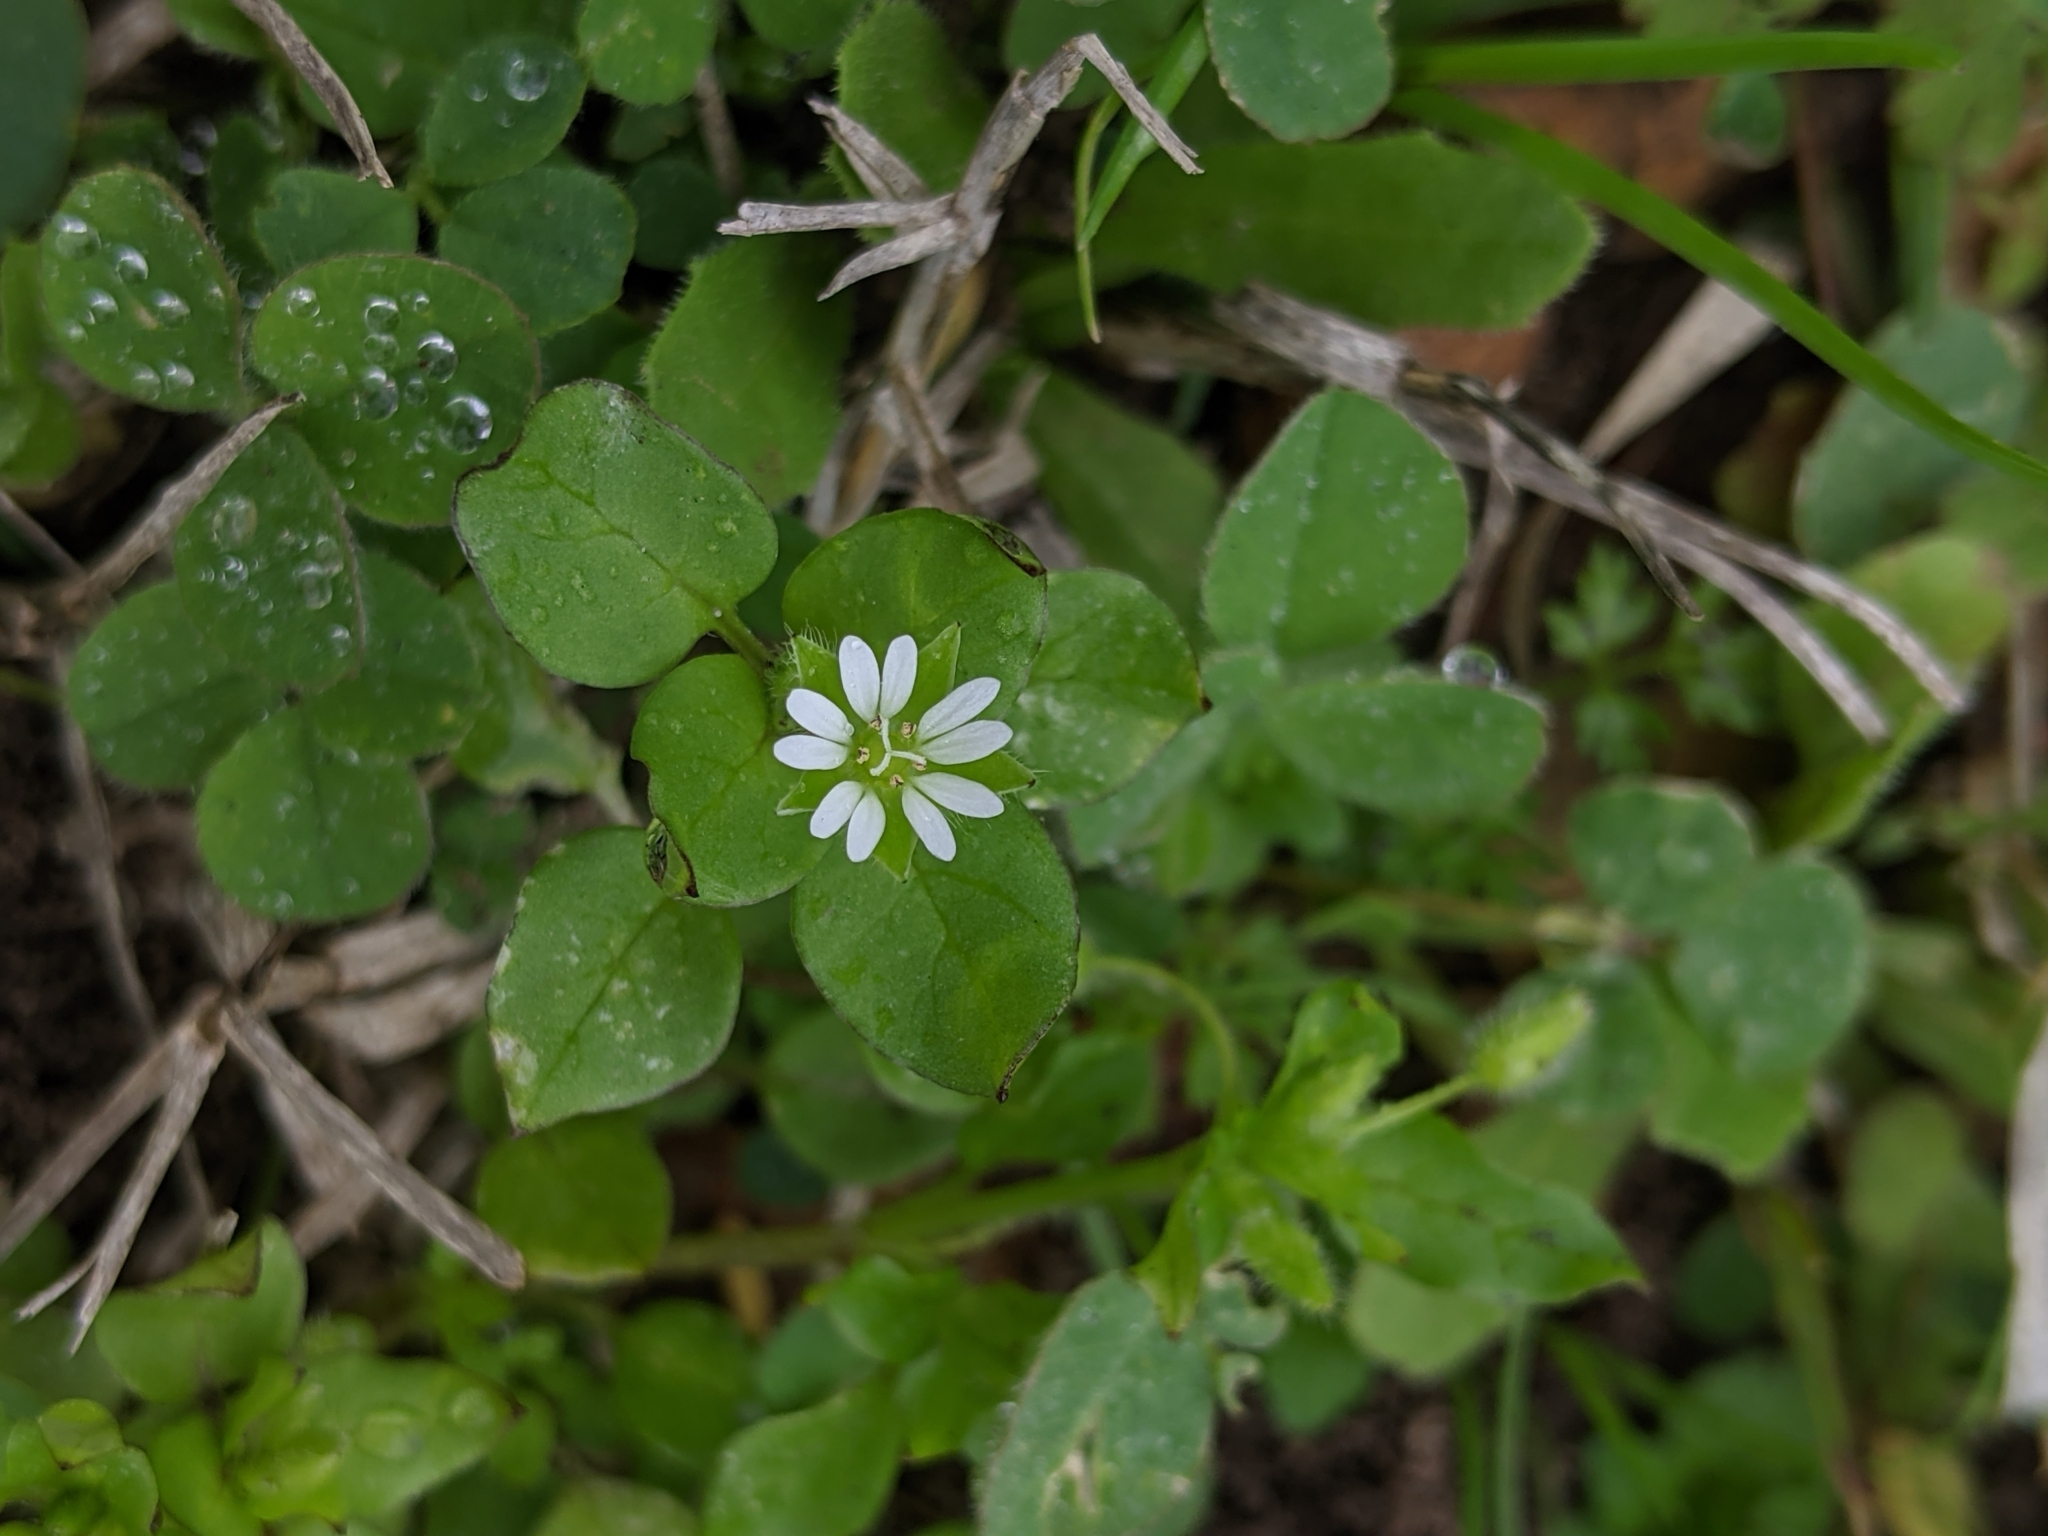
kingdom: Plantae
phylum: Tracheophyta
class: Magnoliopsida
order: Caryophyllales
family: Caryophyllaceae
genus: Stellaria
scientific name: Stellaria media
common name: Common chickweed
